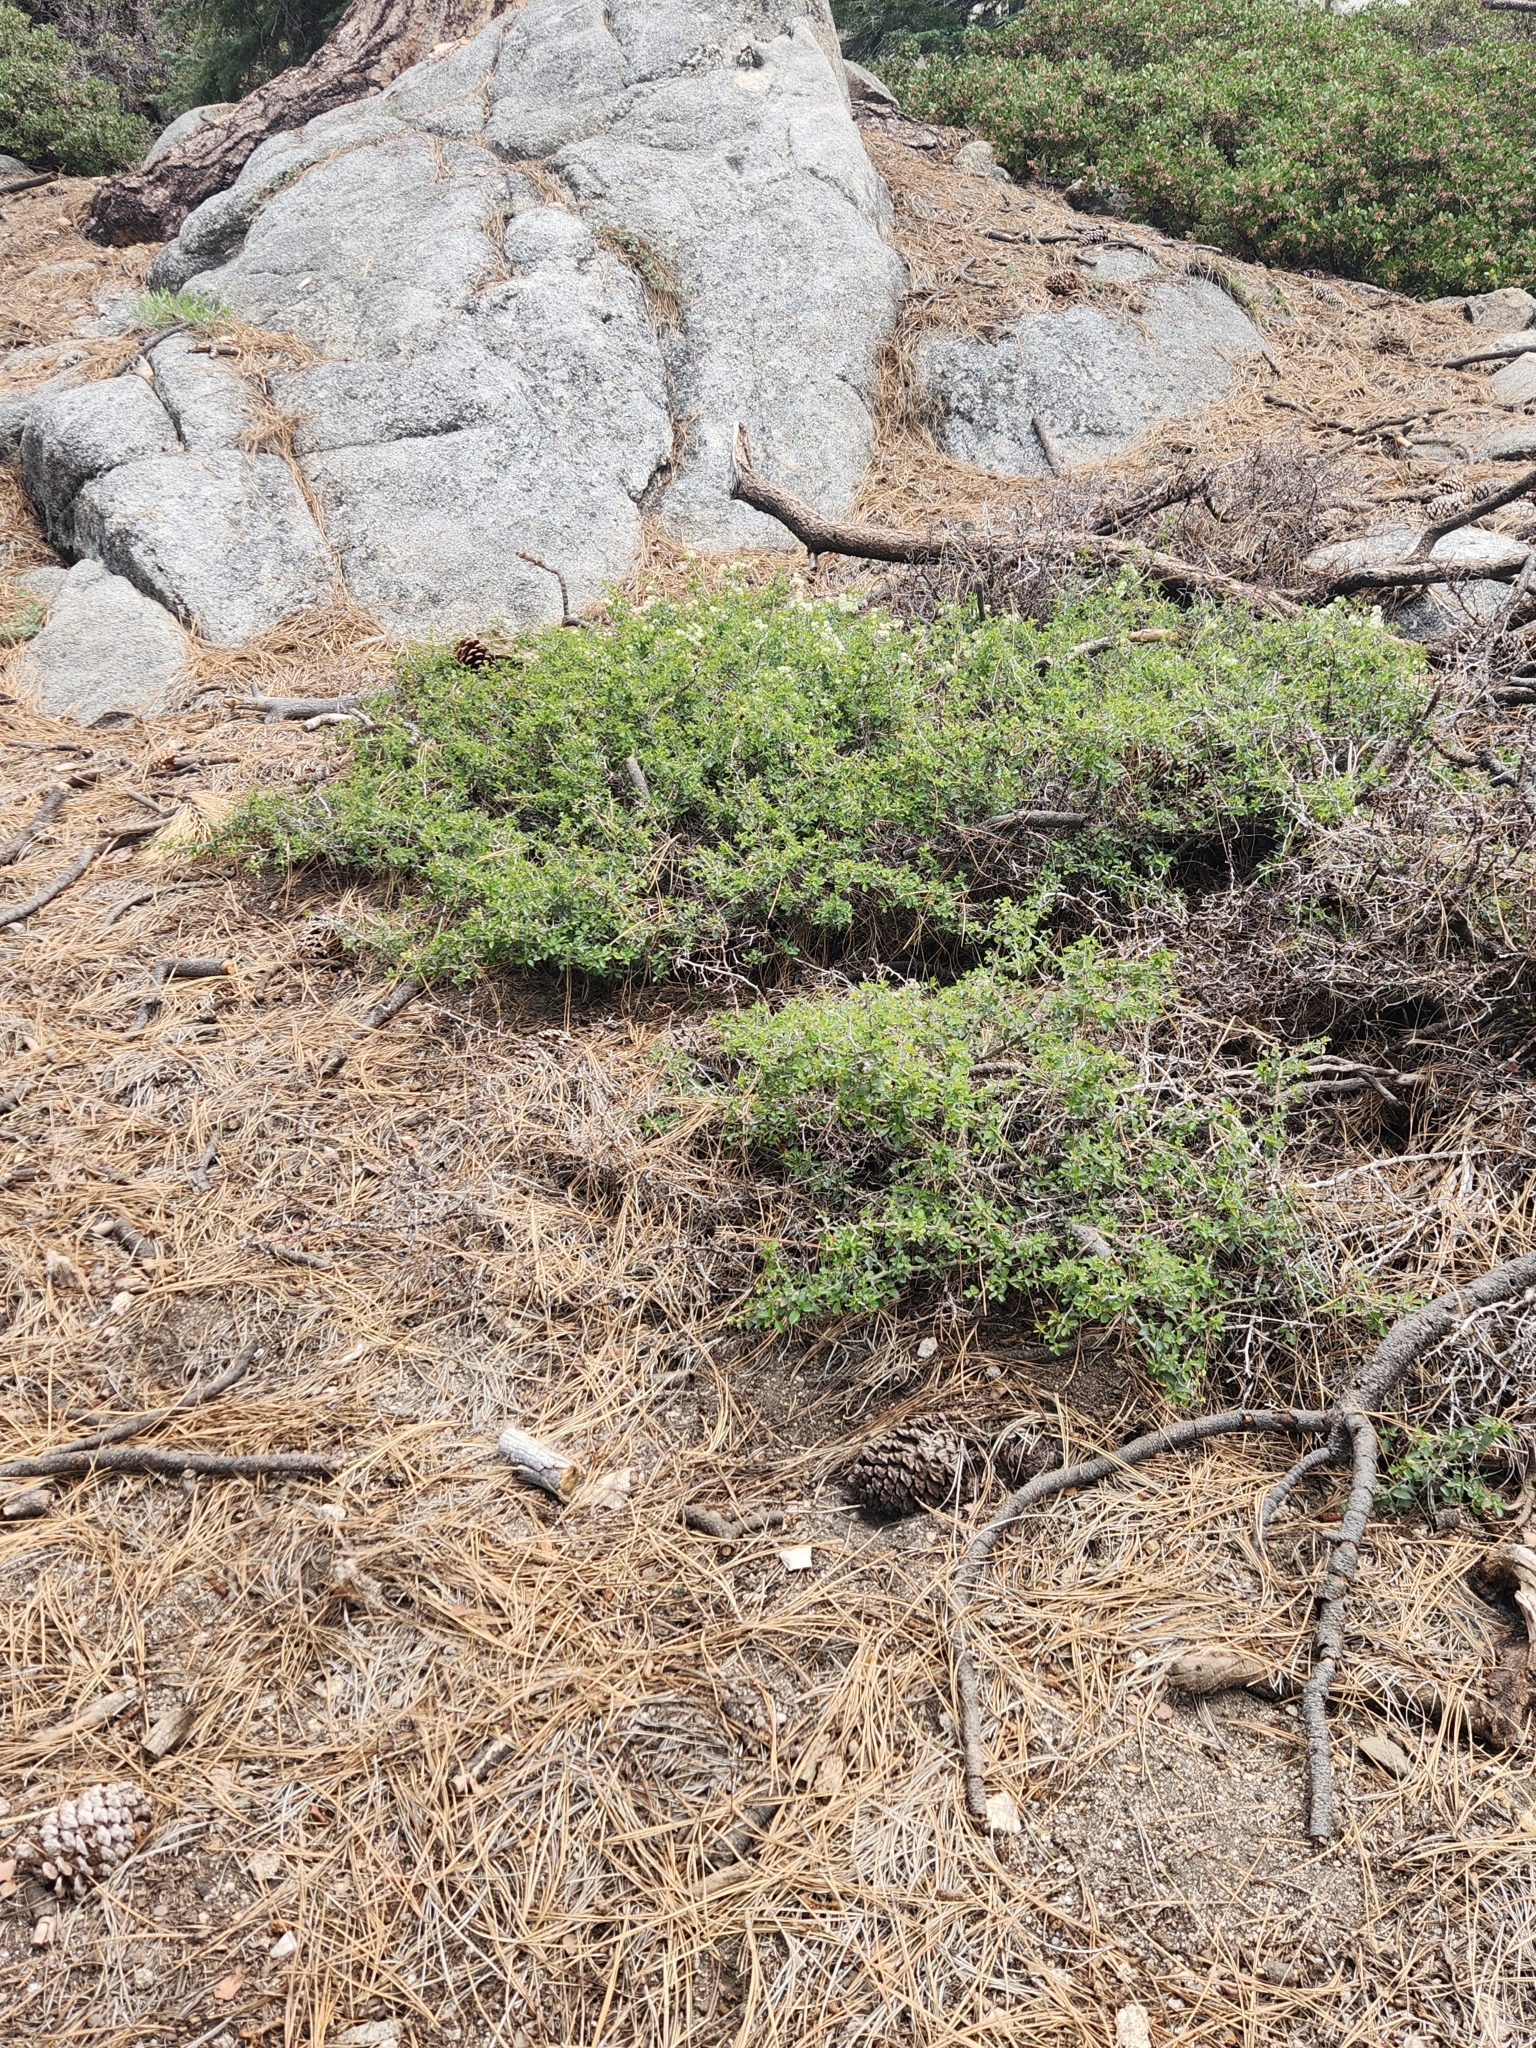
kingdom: Plantae
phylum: Tracheophyta
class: Magnoliopsida
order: Rosales
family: Rhamnaceae
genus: Ceanothus
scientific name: Ceanothus cordulatus
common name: Mountain whitethorn
